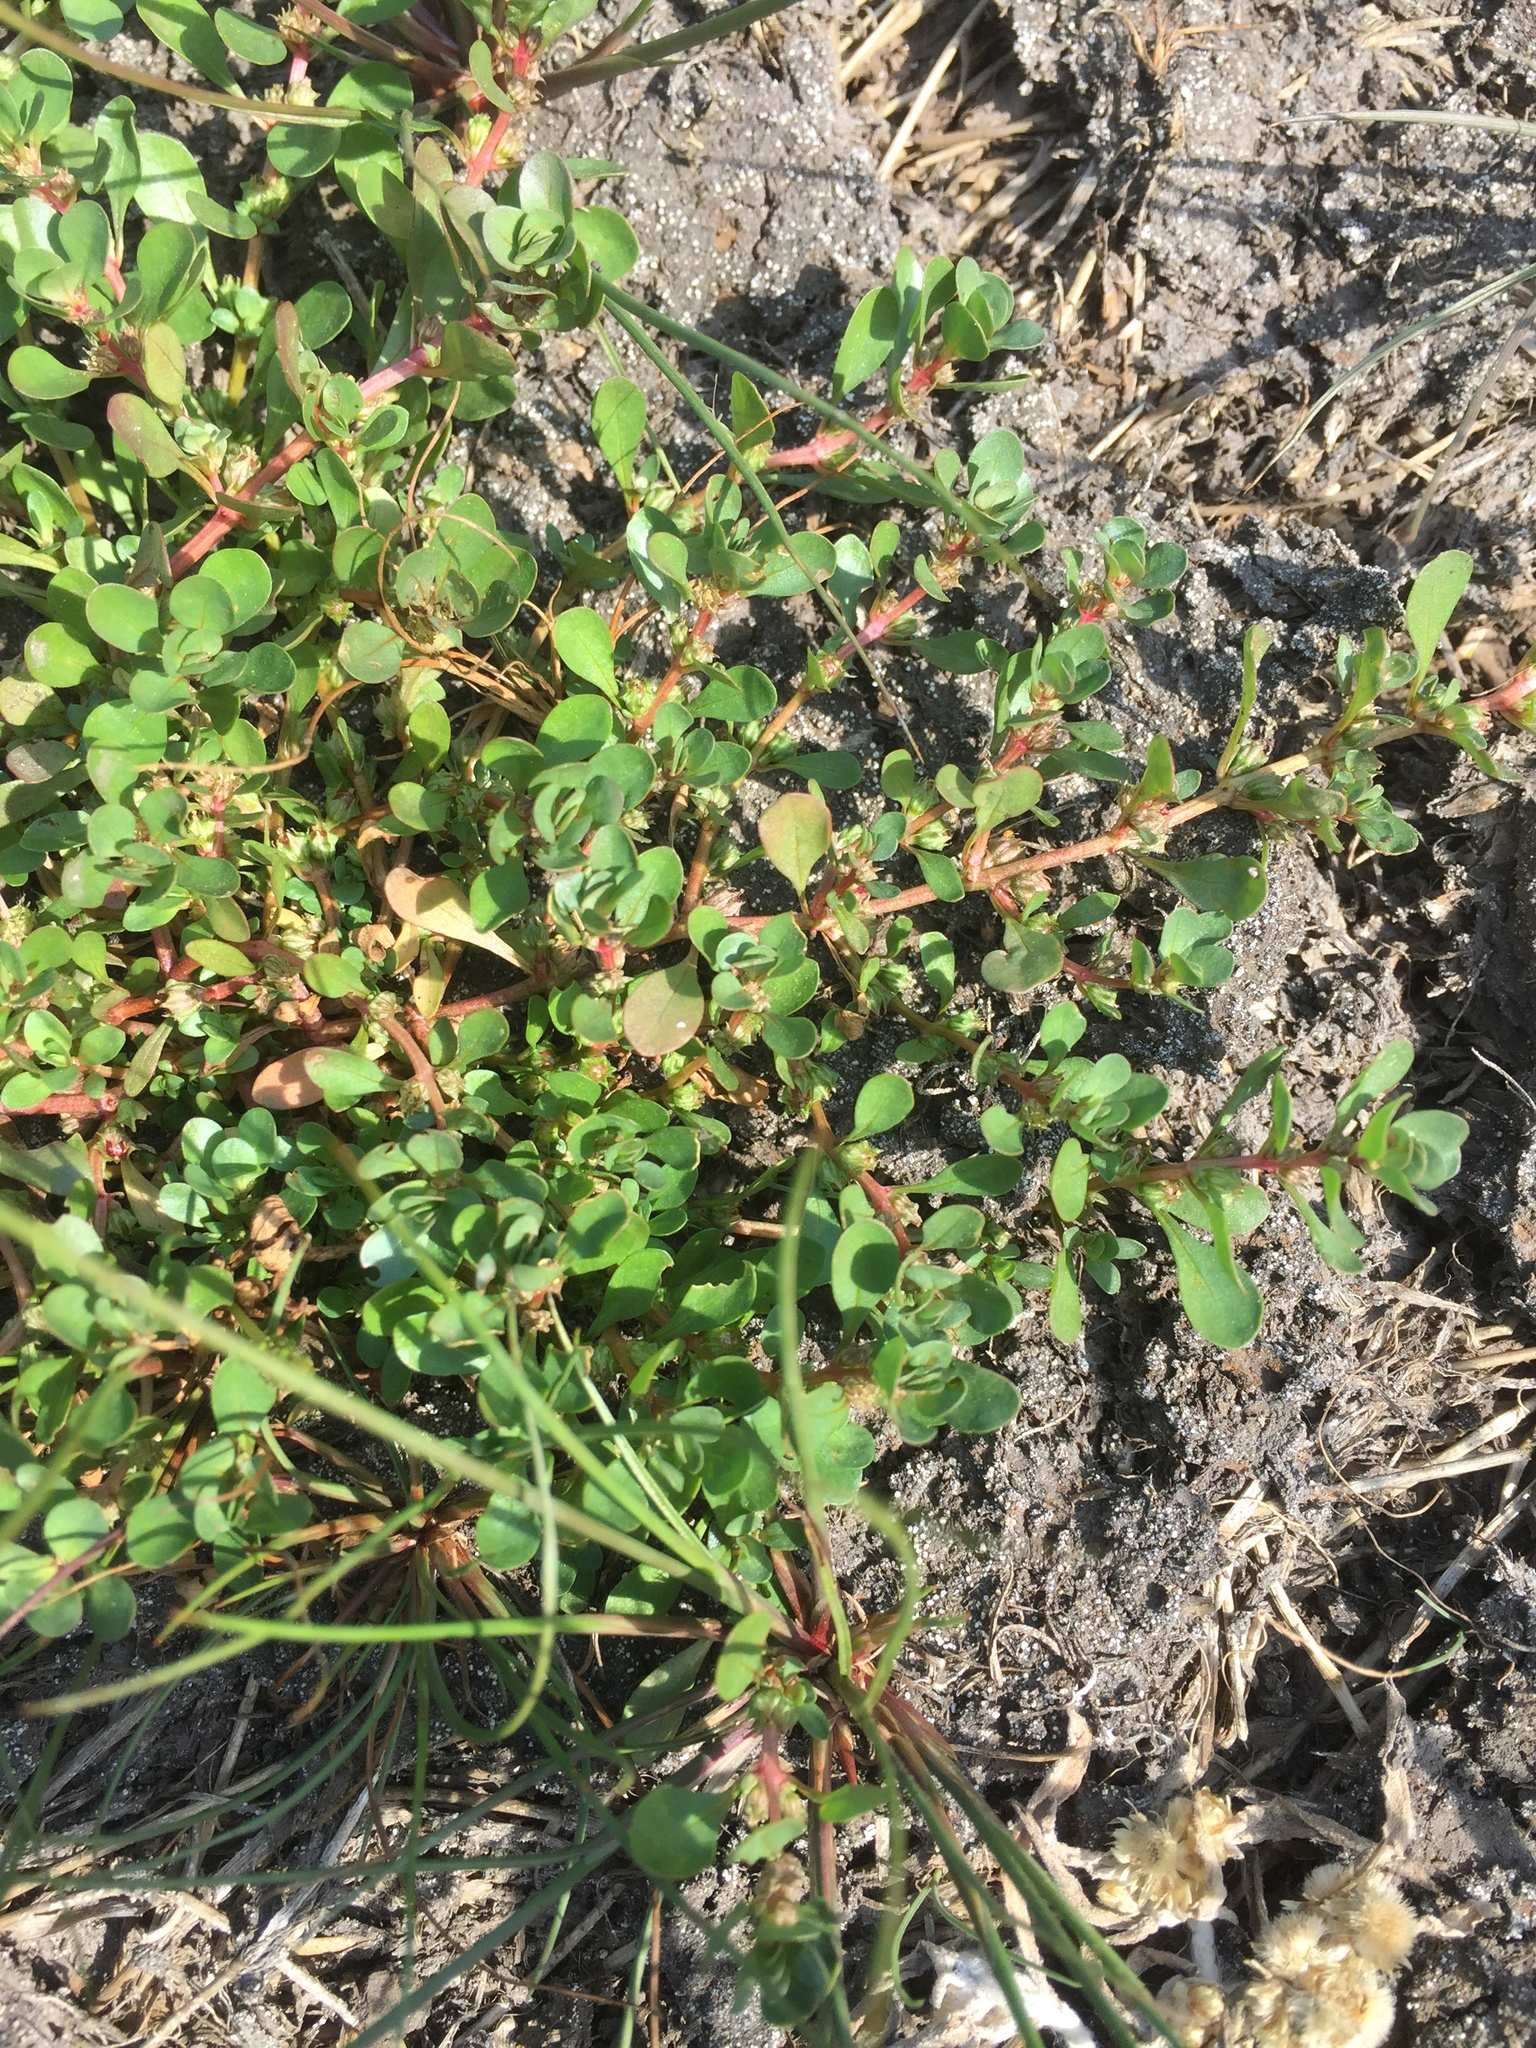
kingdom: Plantae
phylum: Tracheophyta
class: Magnoliopsida
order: Myrtales
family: Lythraceae
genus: Lythrum
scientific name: Lythrum portula
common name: Water purslane
